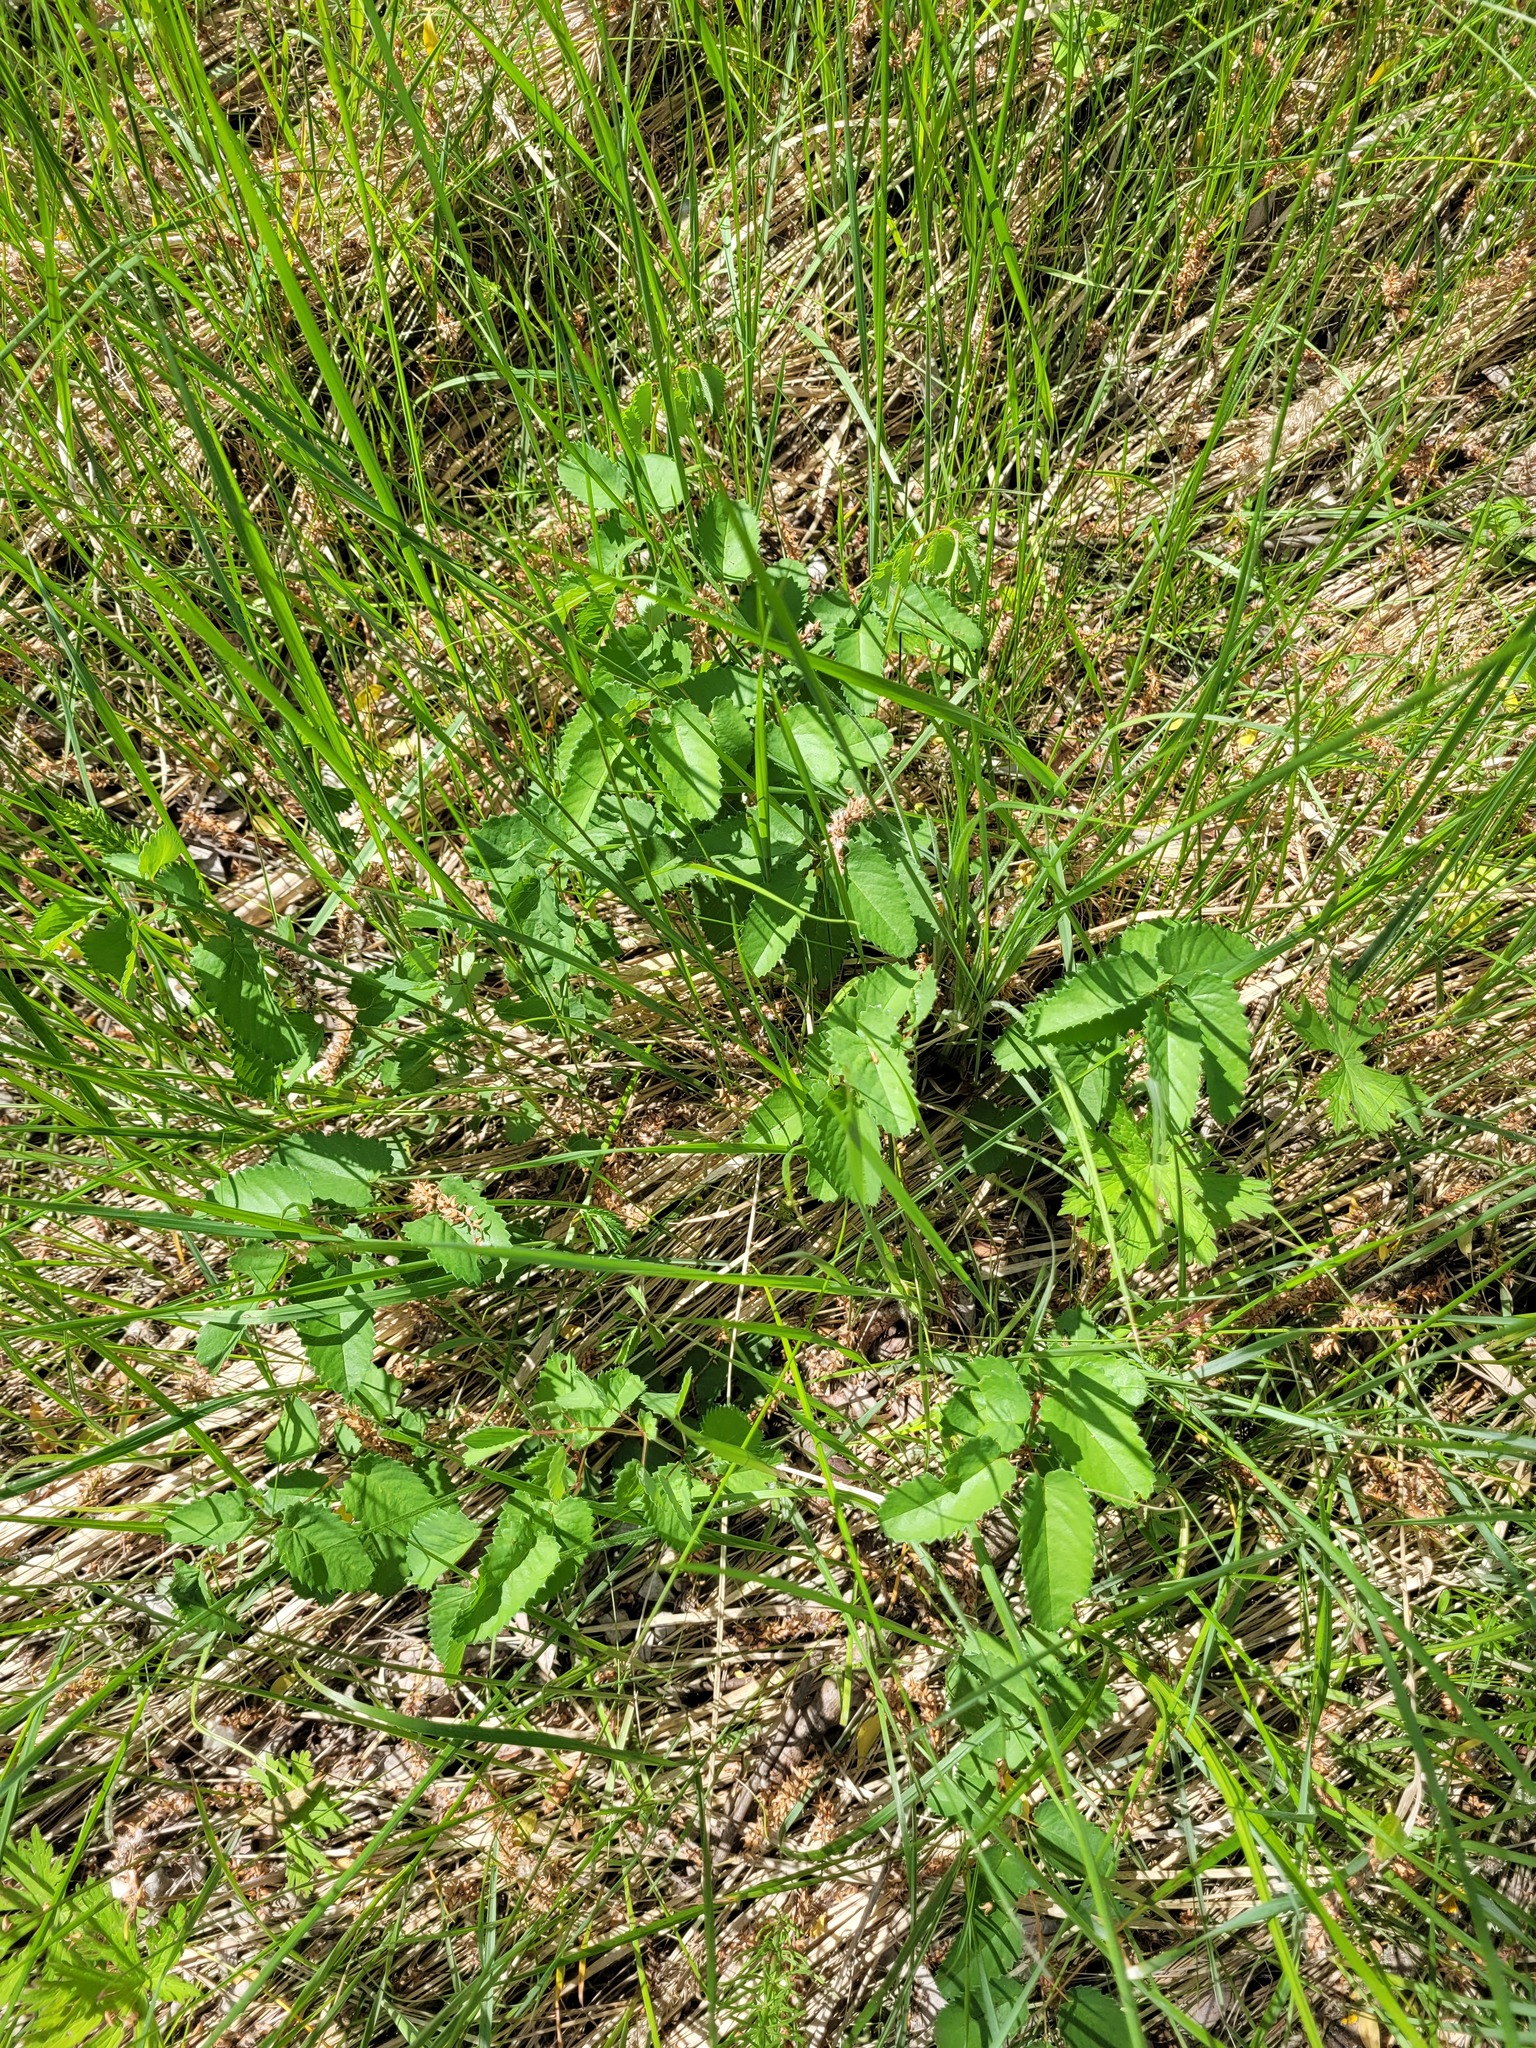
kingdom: Plantae
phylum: Tracheophyta
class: Magnoliopsida
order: Rosales
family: Rosaceae
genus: Sanguisorba
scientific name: Sanguisorba officinalis
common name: Great burnet
